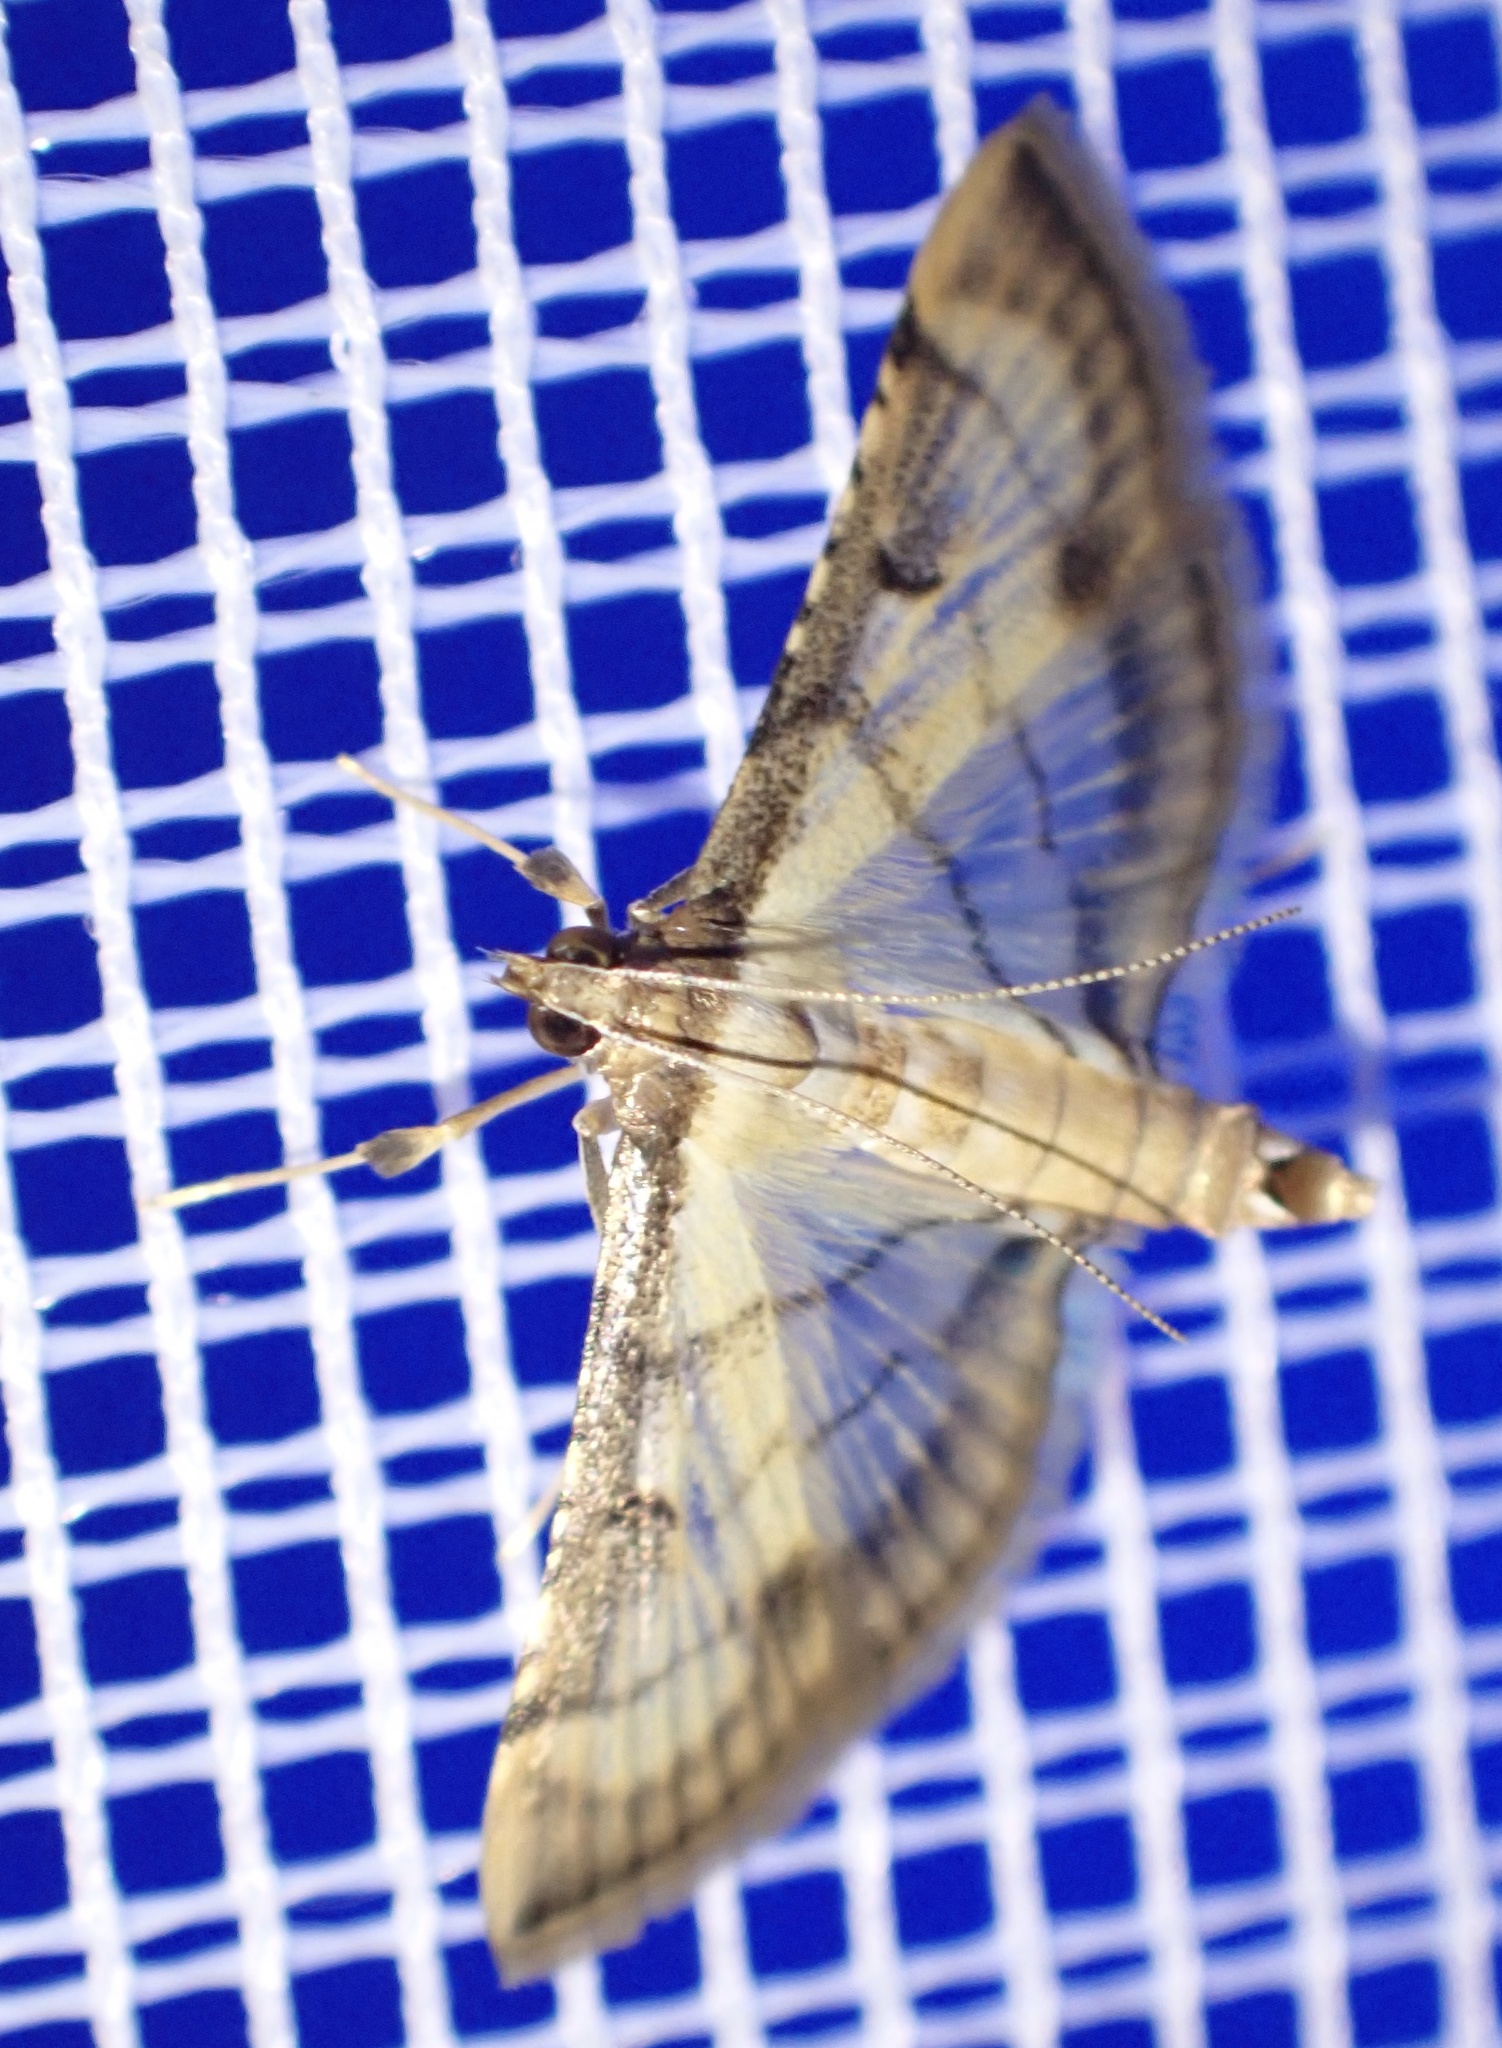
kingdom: Animalia
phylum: Arthropoda
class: Insecta
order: Lepidoptera
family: Crambidae
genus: Cnaphalocrocis
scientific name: Cnaphalocrocis Marasmia trapezalis
